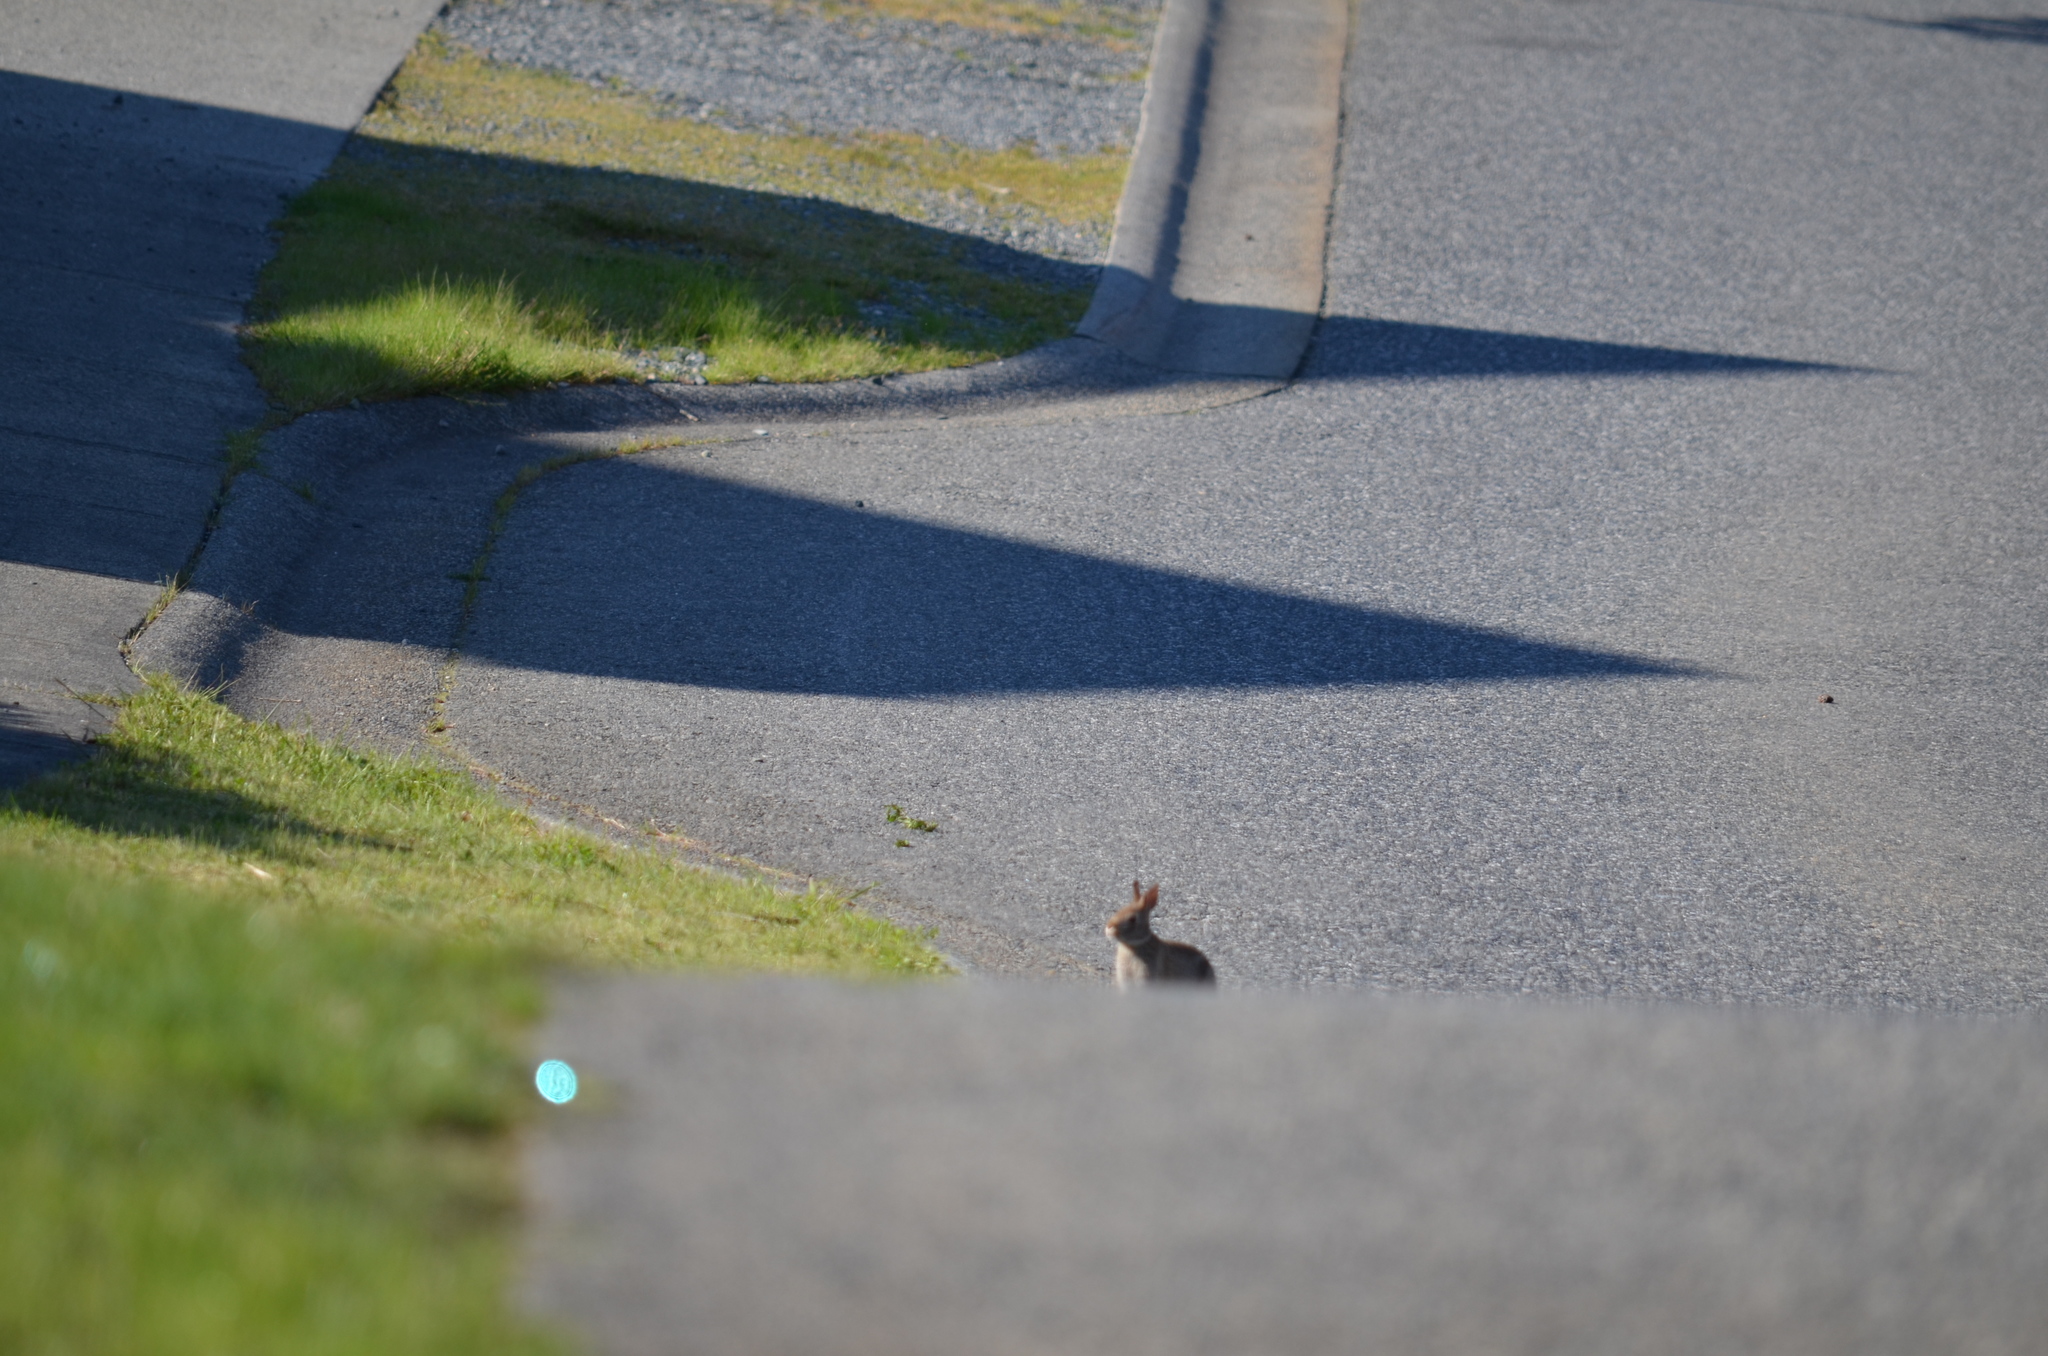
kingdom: Animalia
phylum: Chordata
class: Mammalia
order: Lagomorpha
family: Leporidae
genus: Sylvilagus
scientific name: Sylvilagus floridanus
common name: Eastern cottontail
